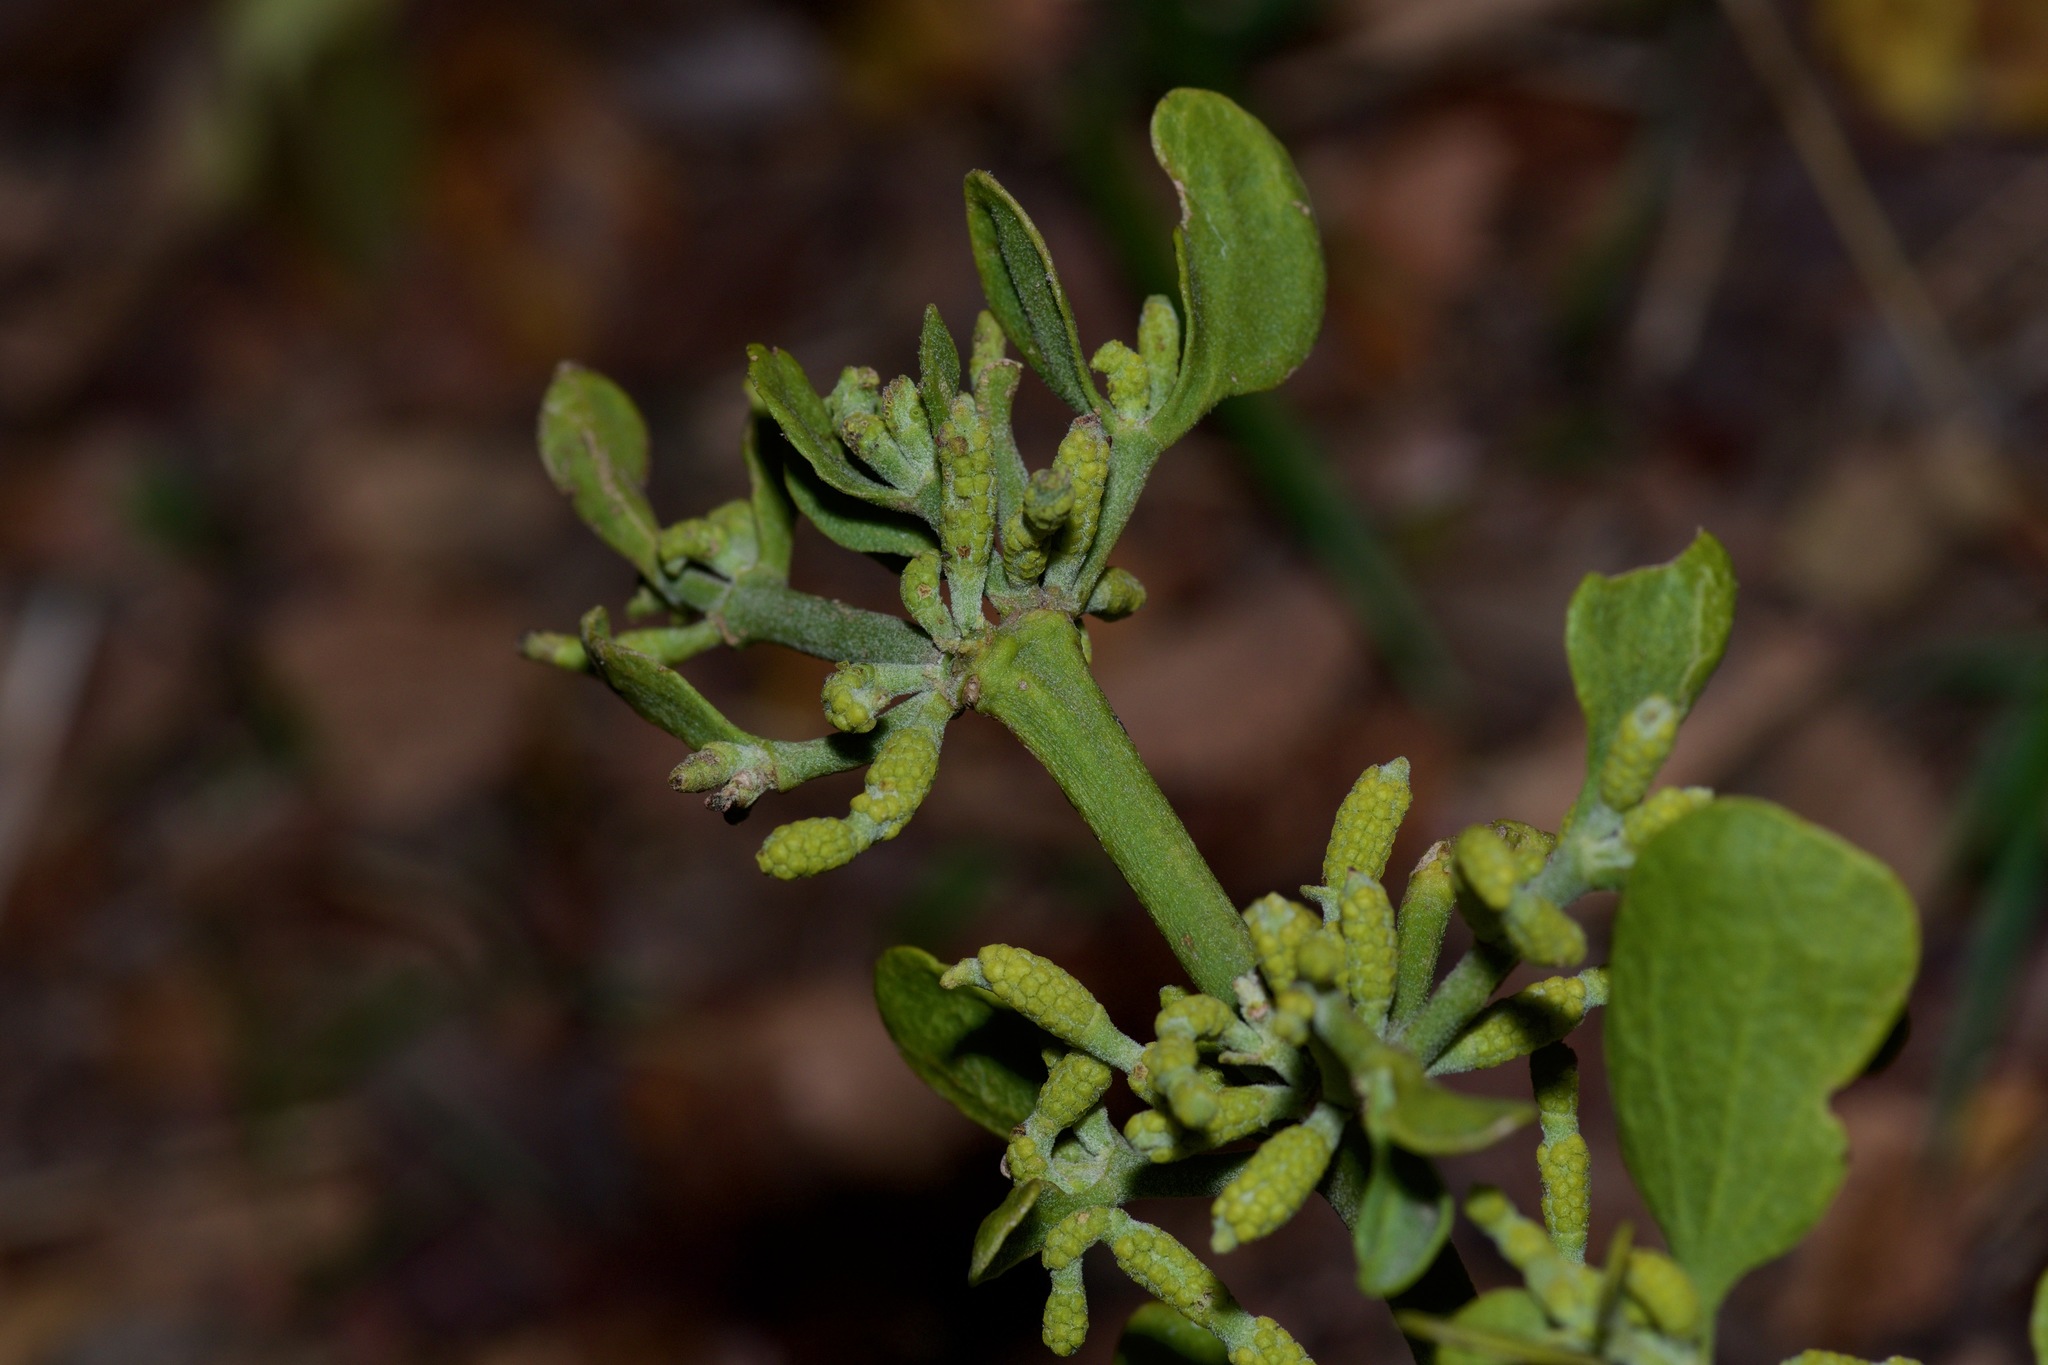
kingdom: Plantae
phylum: Tracheophyta
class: Magnoliopsida
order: Santalales
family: Viscaceae
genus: Phoradendron
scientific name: Phoradendron leucarpum
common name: Pacific mistletoe
